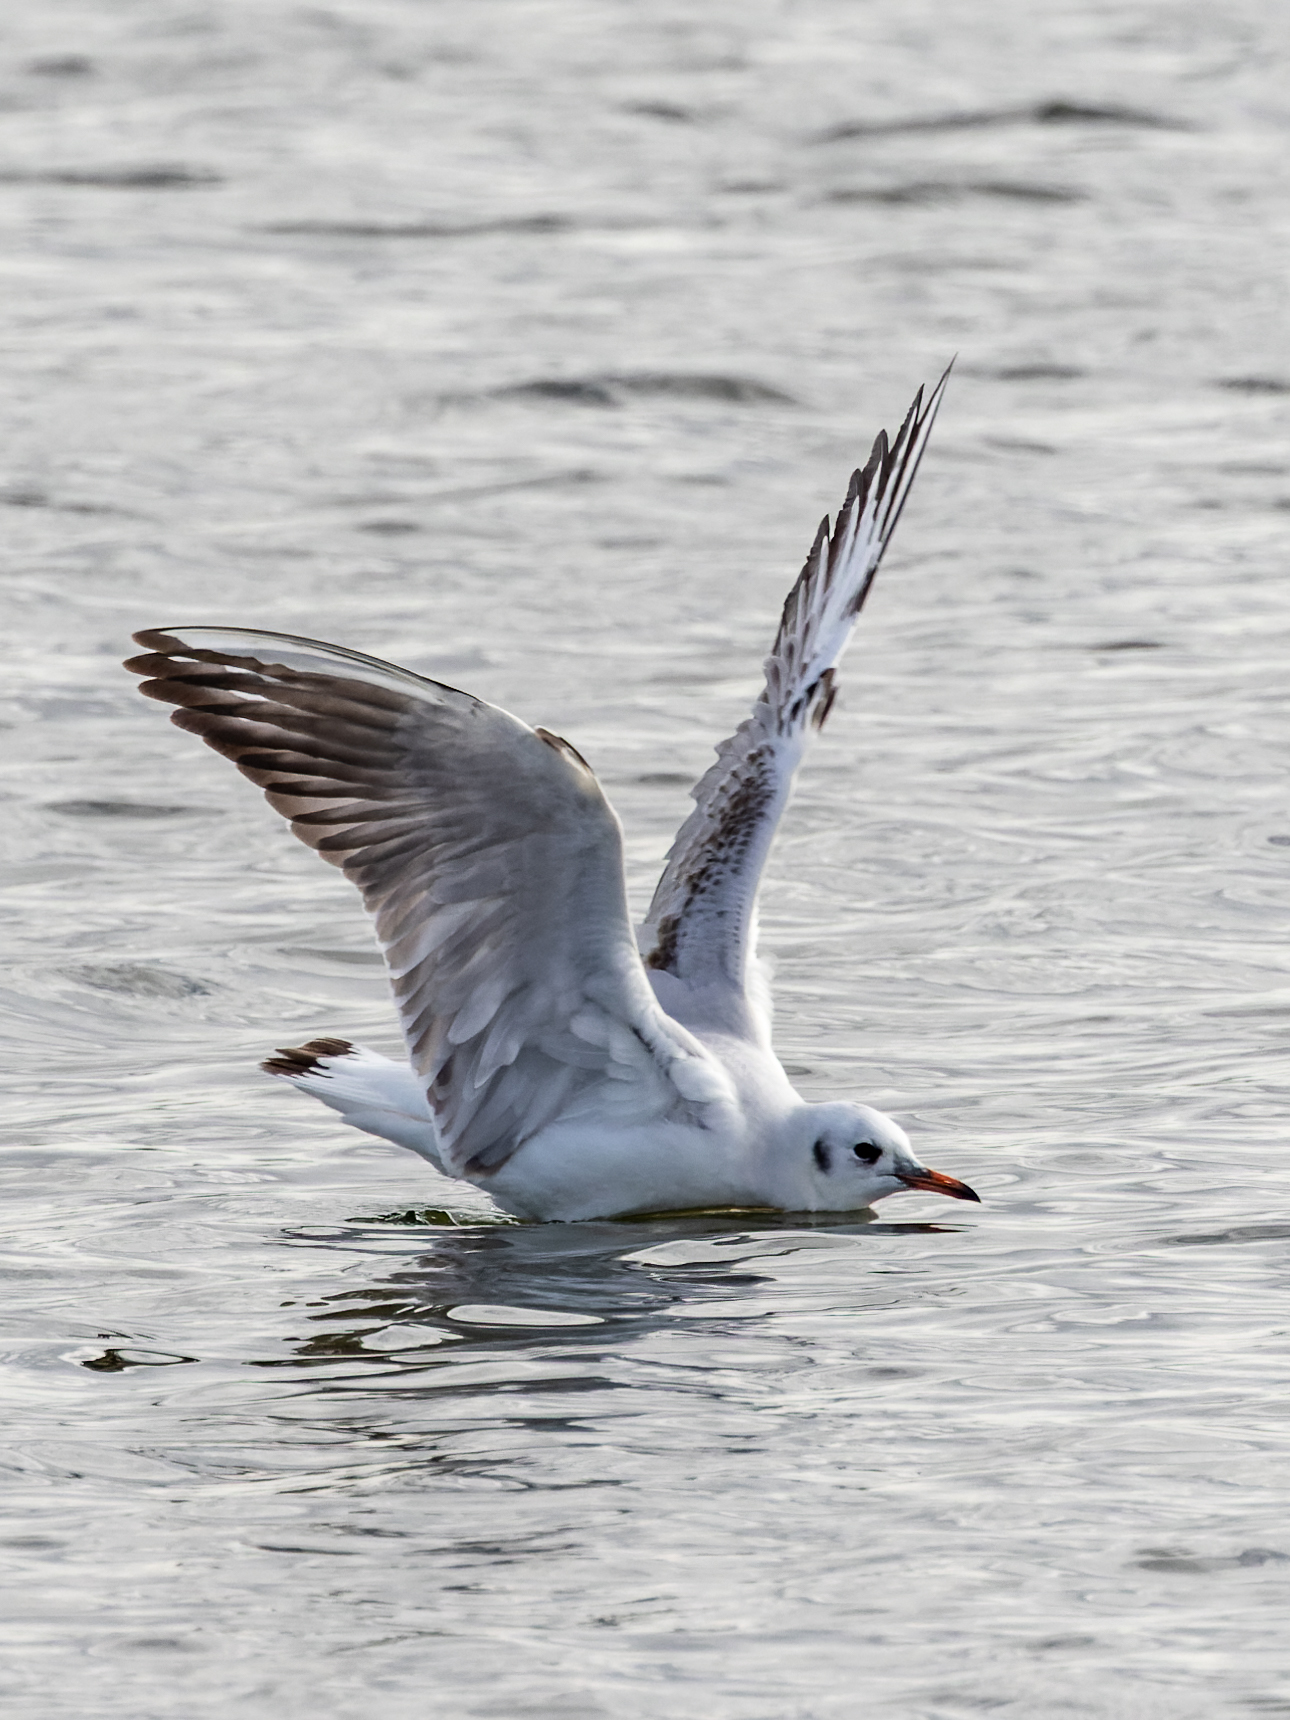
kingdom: Animalia
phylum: Chordata
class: Aves
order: Charadriiformes
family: Laridae
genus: Chroicocephalus
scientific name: Chroicocephalus ridibundus
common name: Black-headed gull
